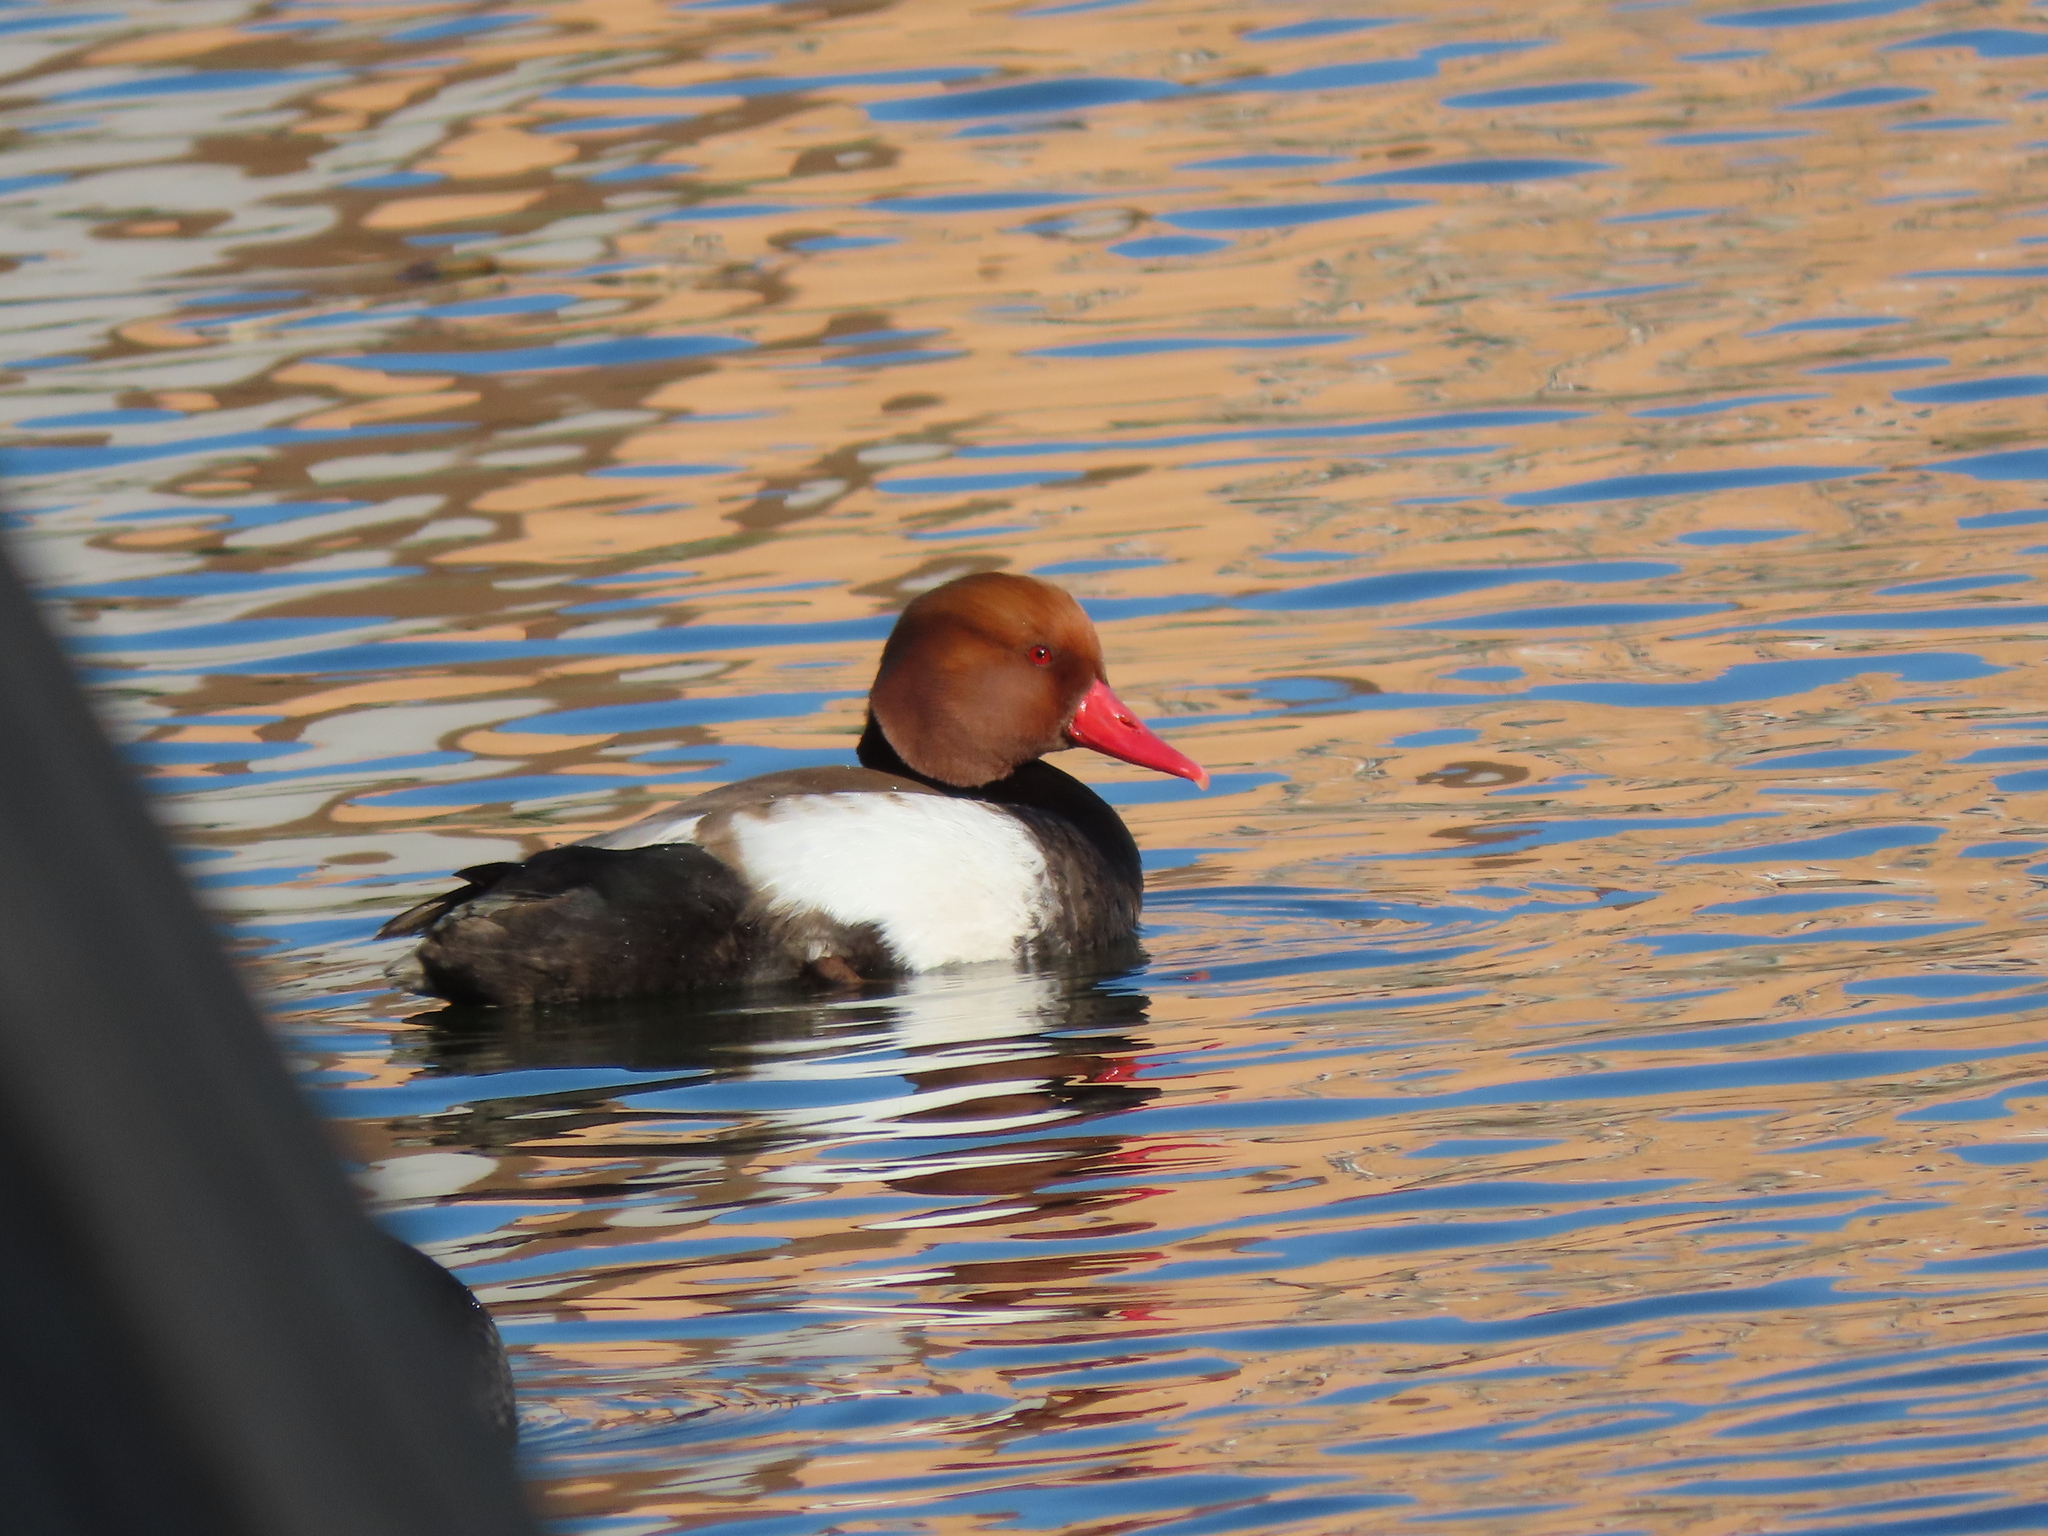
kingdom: Animalia
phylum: Chordata
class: Aves
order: Anseriformes
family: Anatidae
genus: Netta
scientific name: Netta rufina
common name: Red-crested pochard
